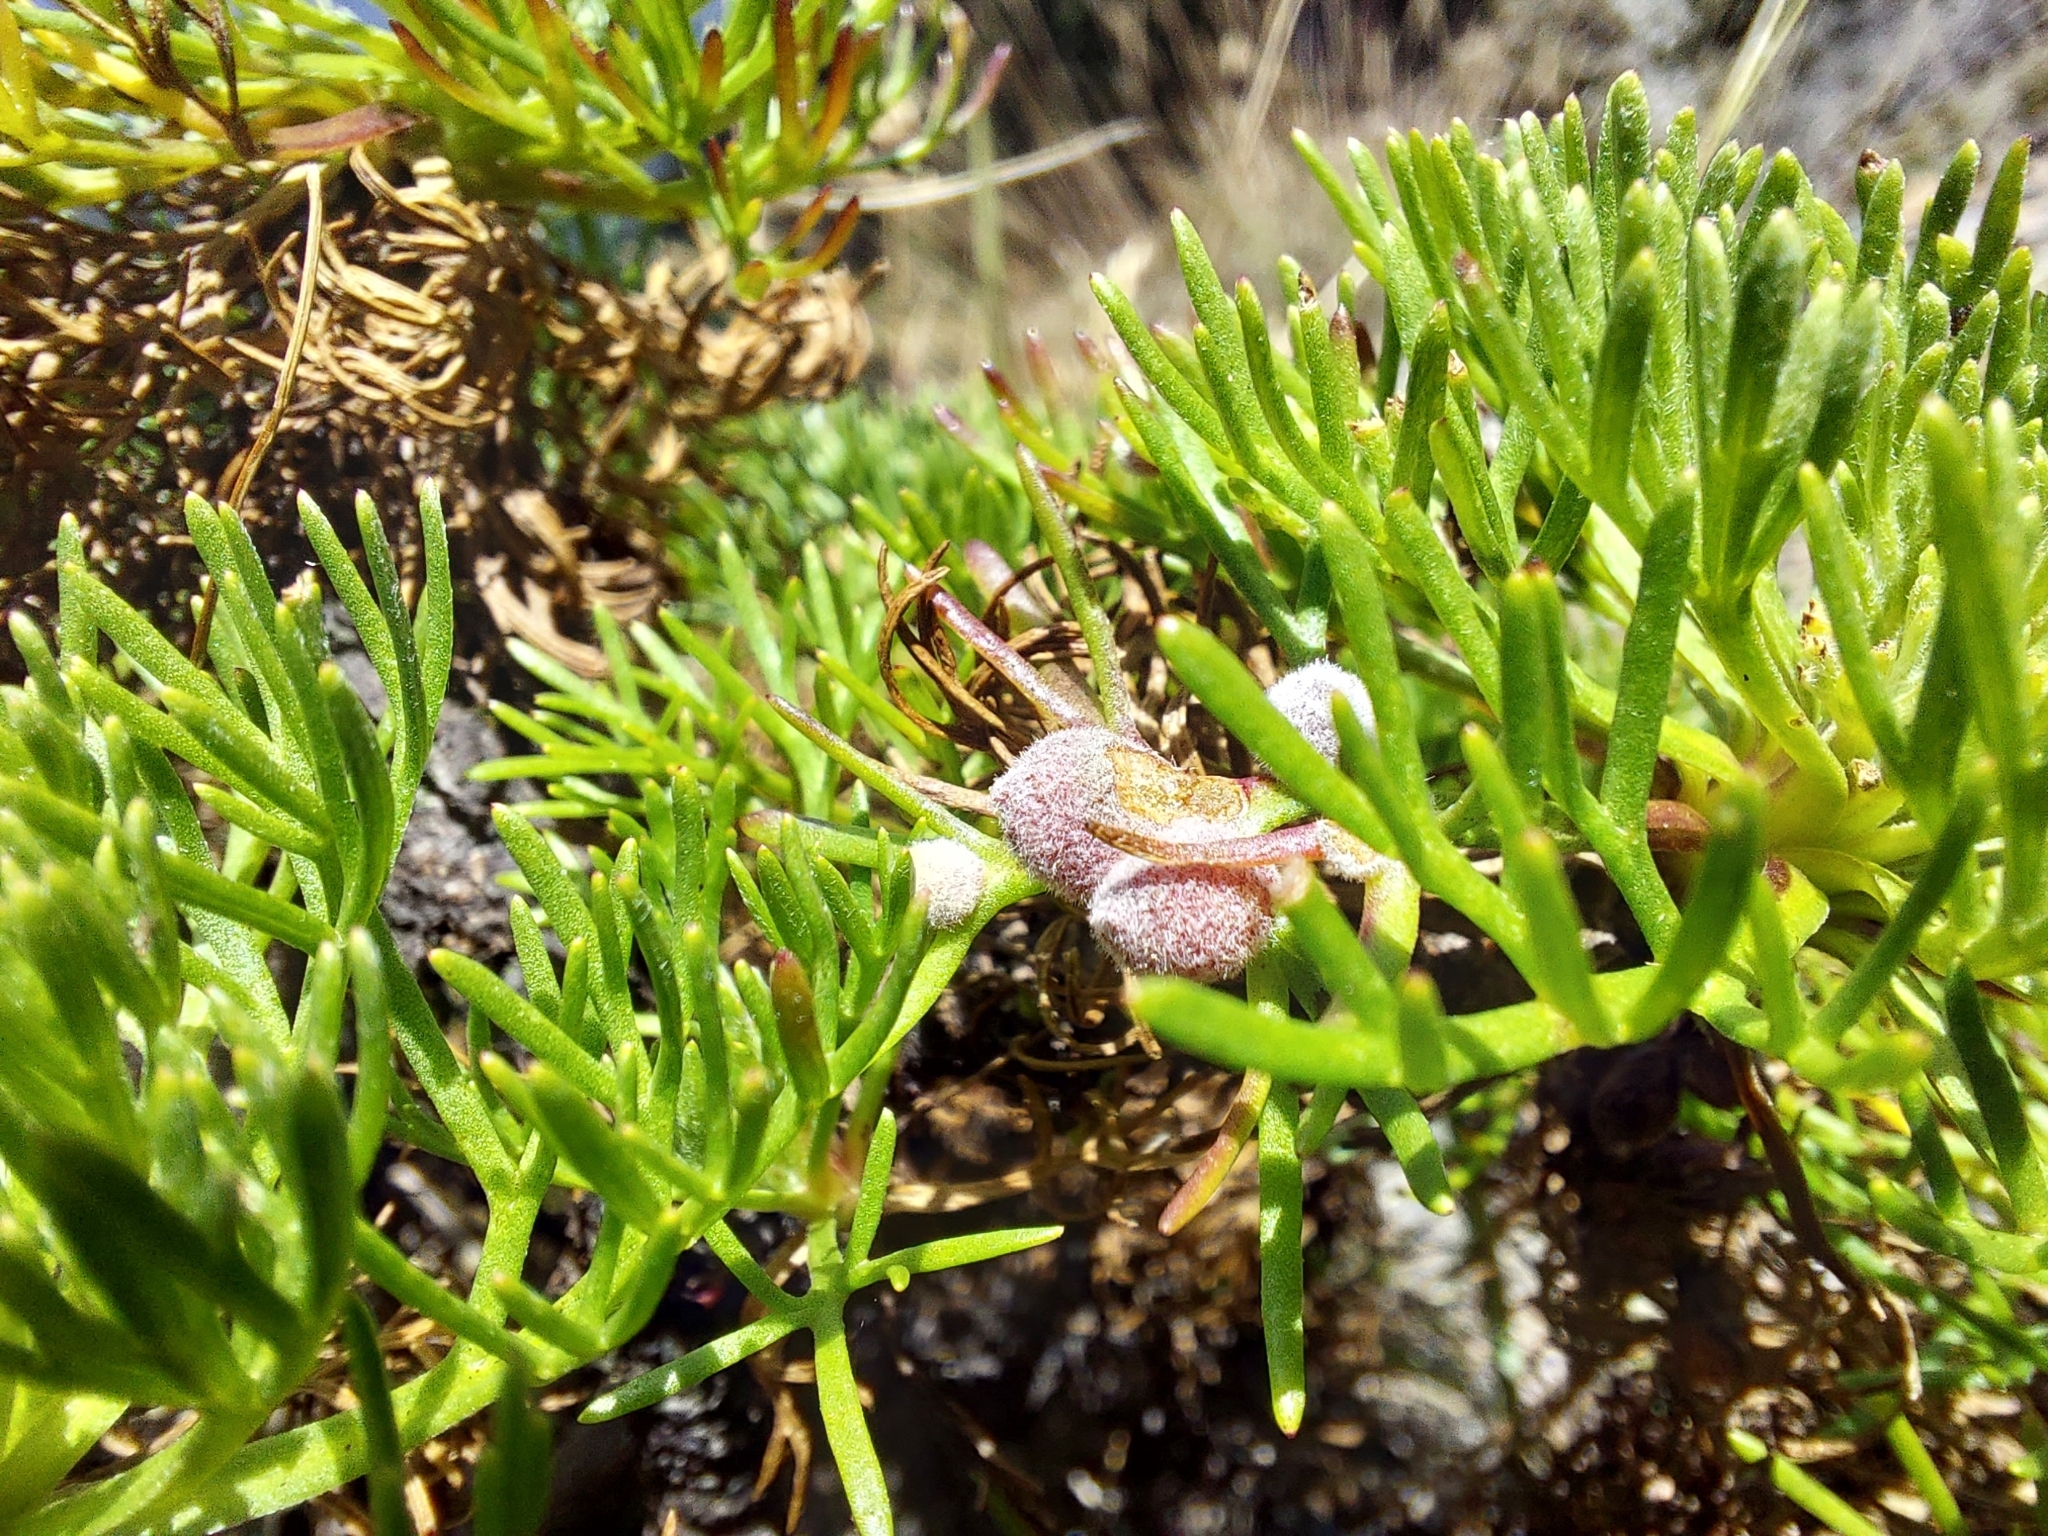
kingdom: Plantae
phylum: Tracheophyta
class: Magnoliopsida
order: Asterales
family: Asteraceae
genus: Artemisia
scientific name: Artemisia morrisonensis
